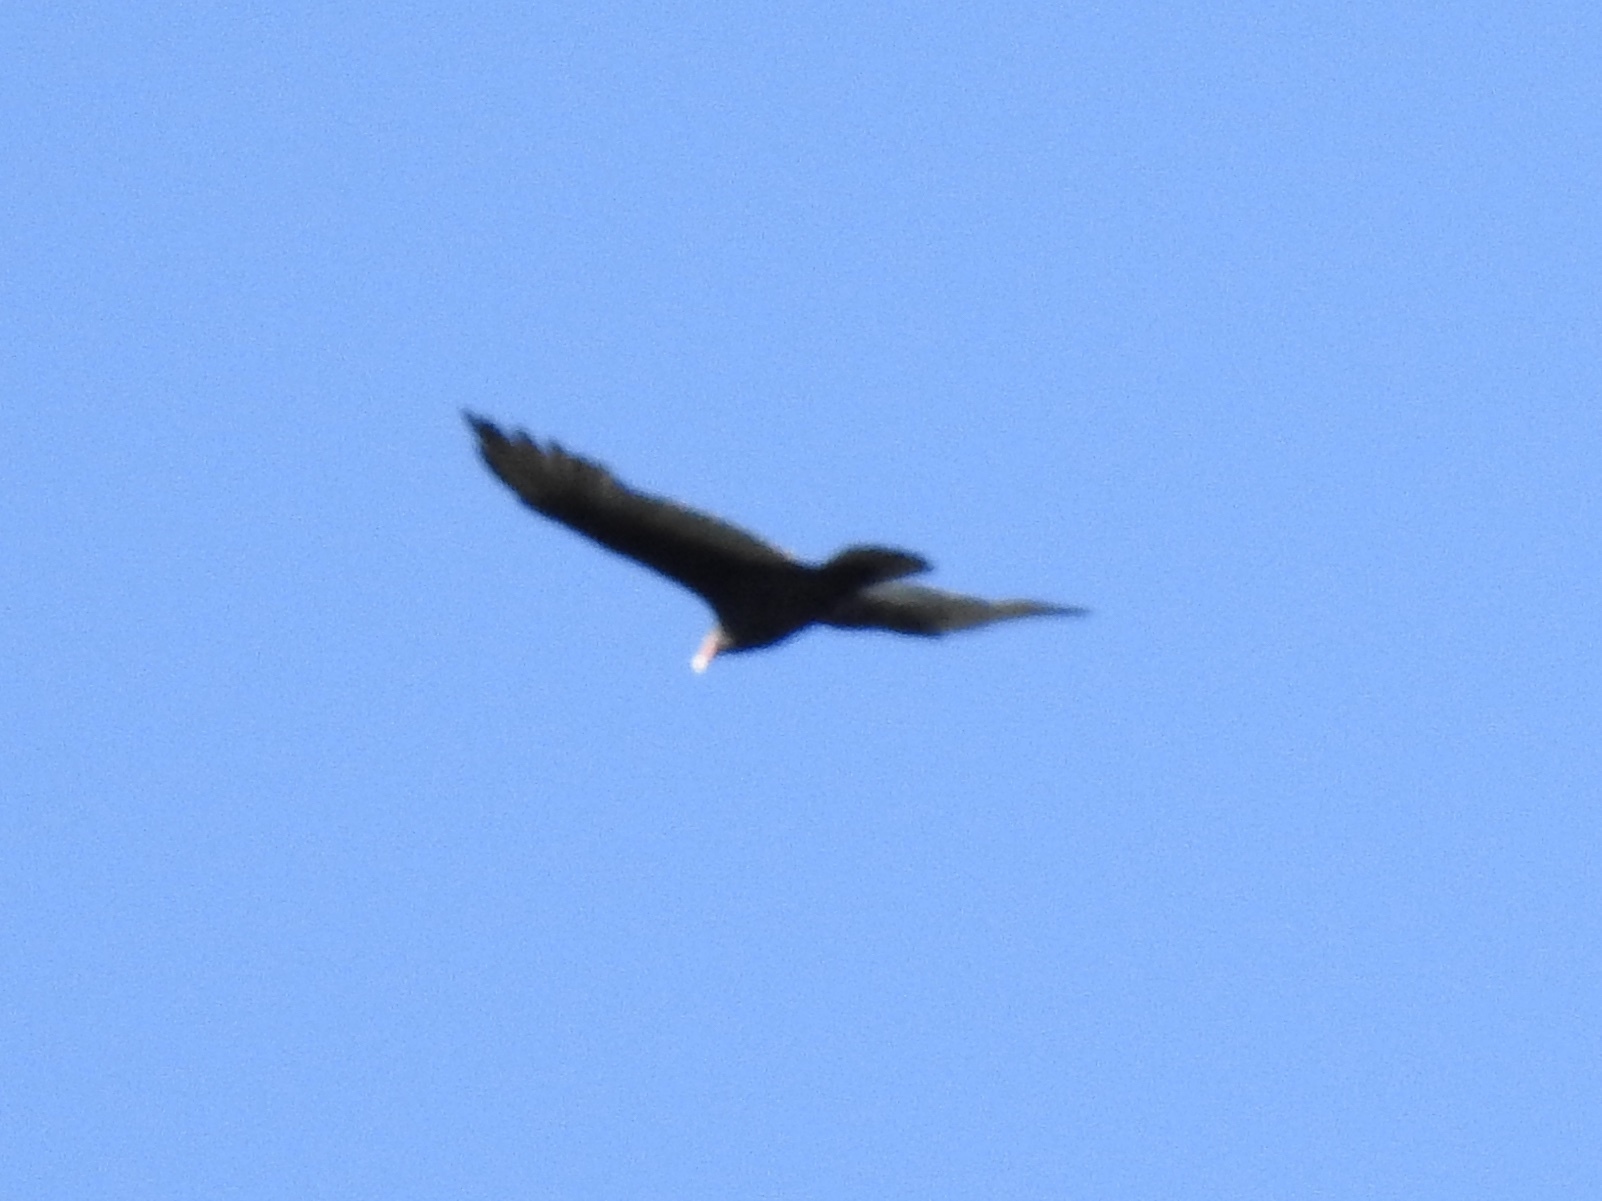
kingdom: Animalia
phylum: Chordata
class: Aves
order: Accipitriformes
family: Cathartidae
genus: Cathartes
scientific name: Cathartes aura
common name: Turkey vulture
